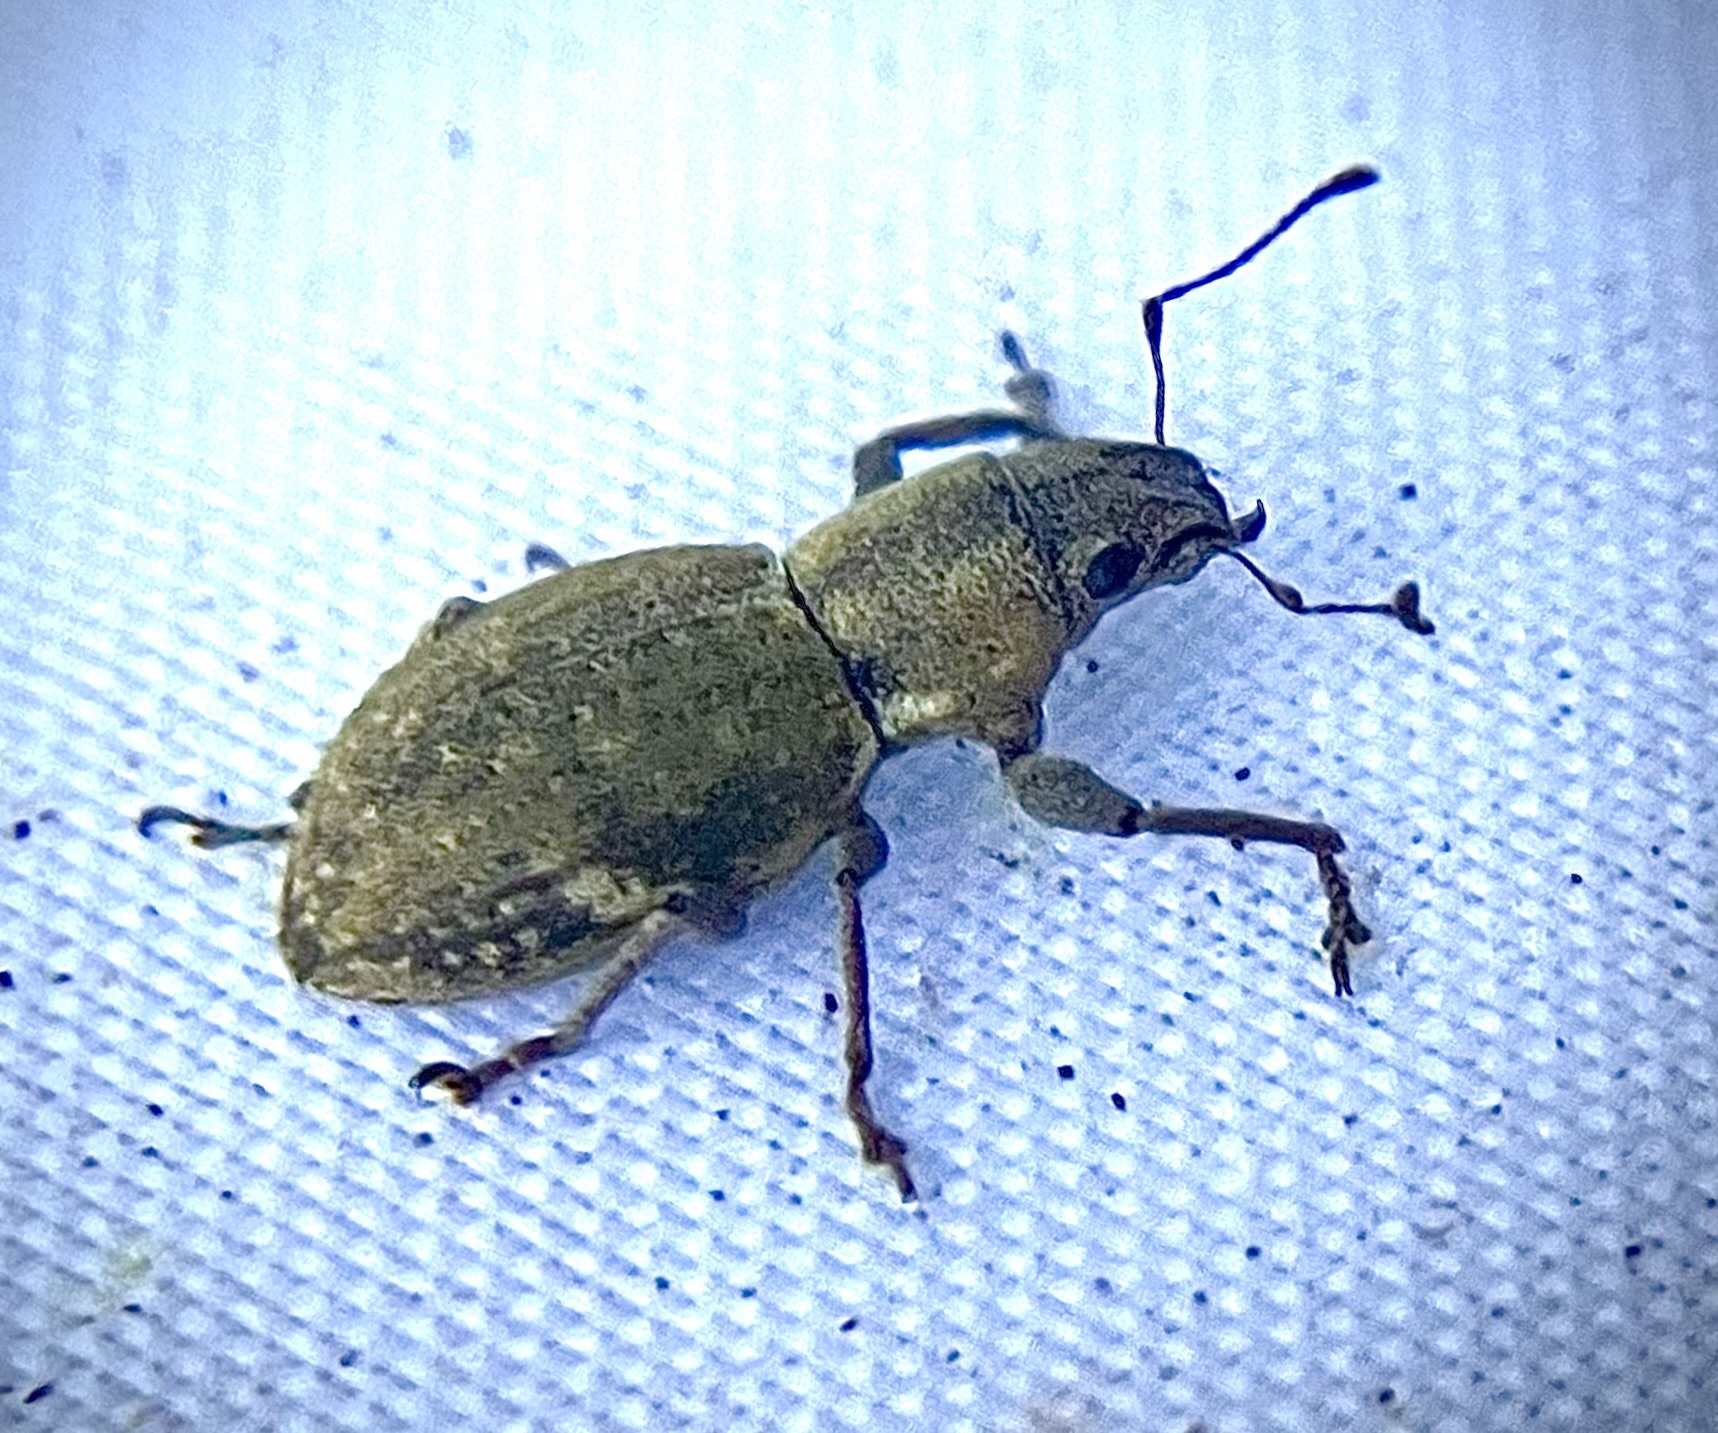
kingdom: Animalia
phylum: Arthropoda
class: Insecta
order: Coleoptera
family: Curculionidae
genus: Naupactus
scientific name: Naupactus cervinus
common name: Fuller rose beetle
